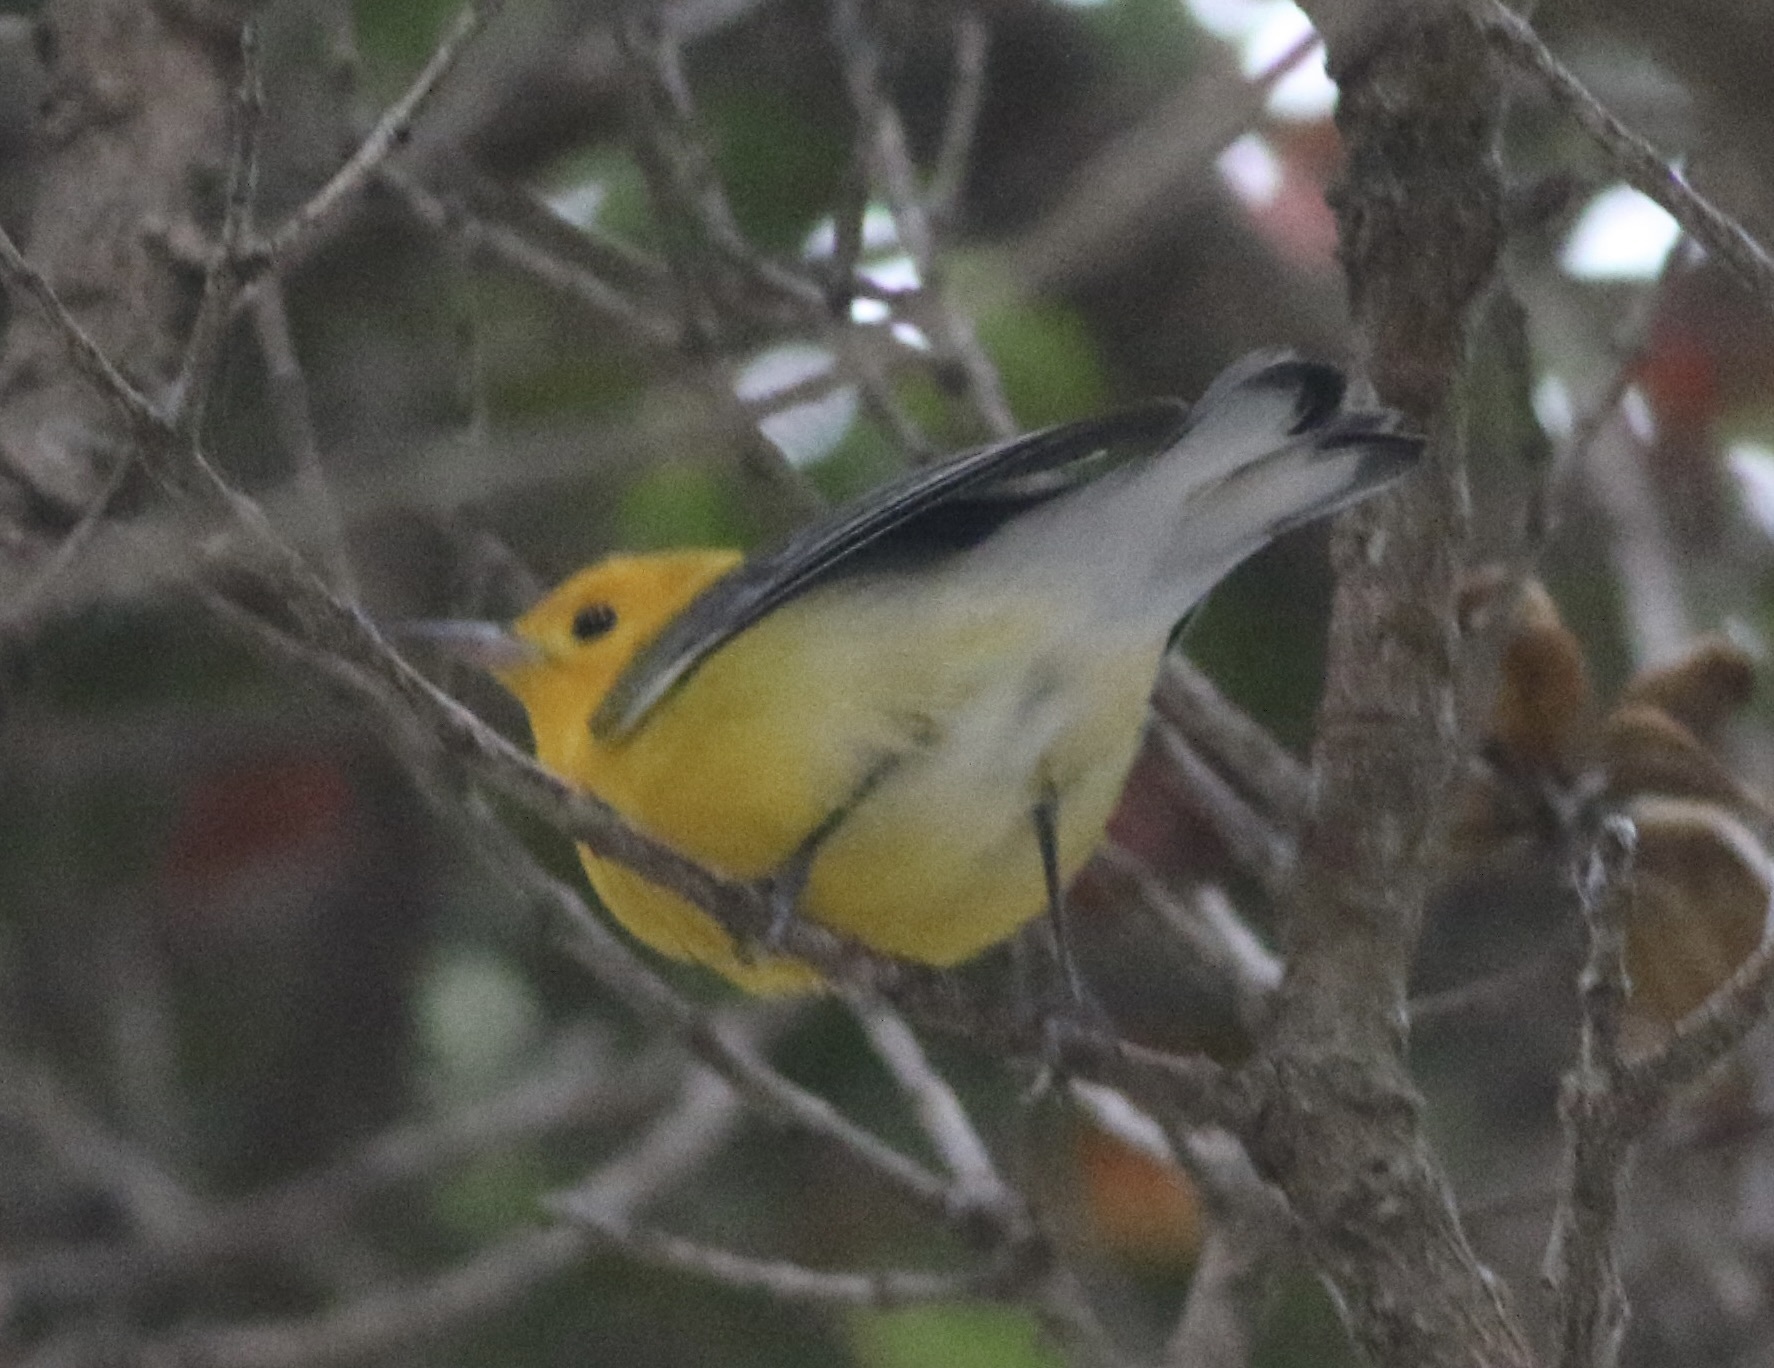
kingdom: Animalia
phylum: Chordata
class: Aves
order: Passeriformes
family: Parulidae
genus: Protonotaria
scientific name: Protonotaria citrea
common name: Prothonotary warbler
